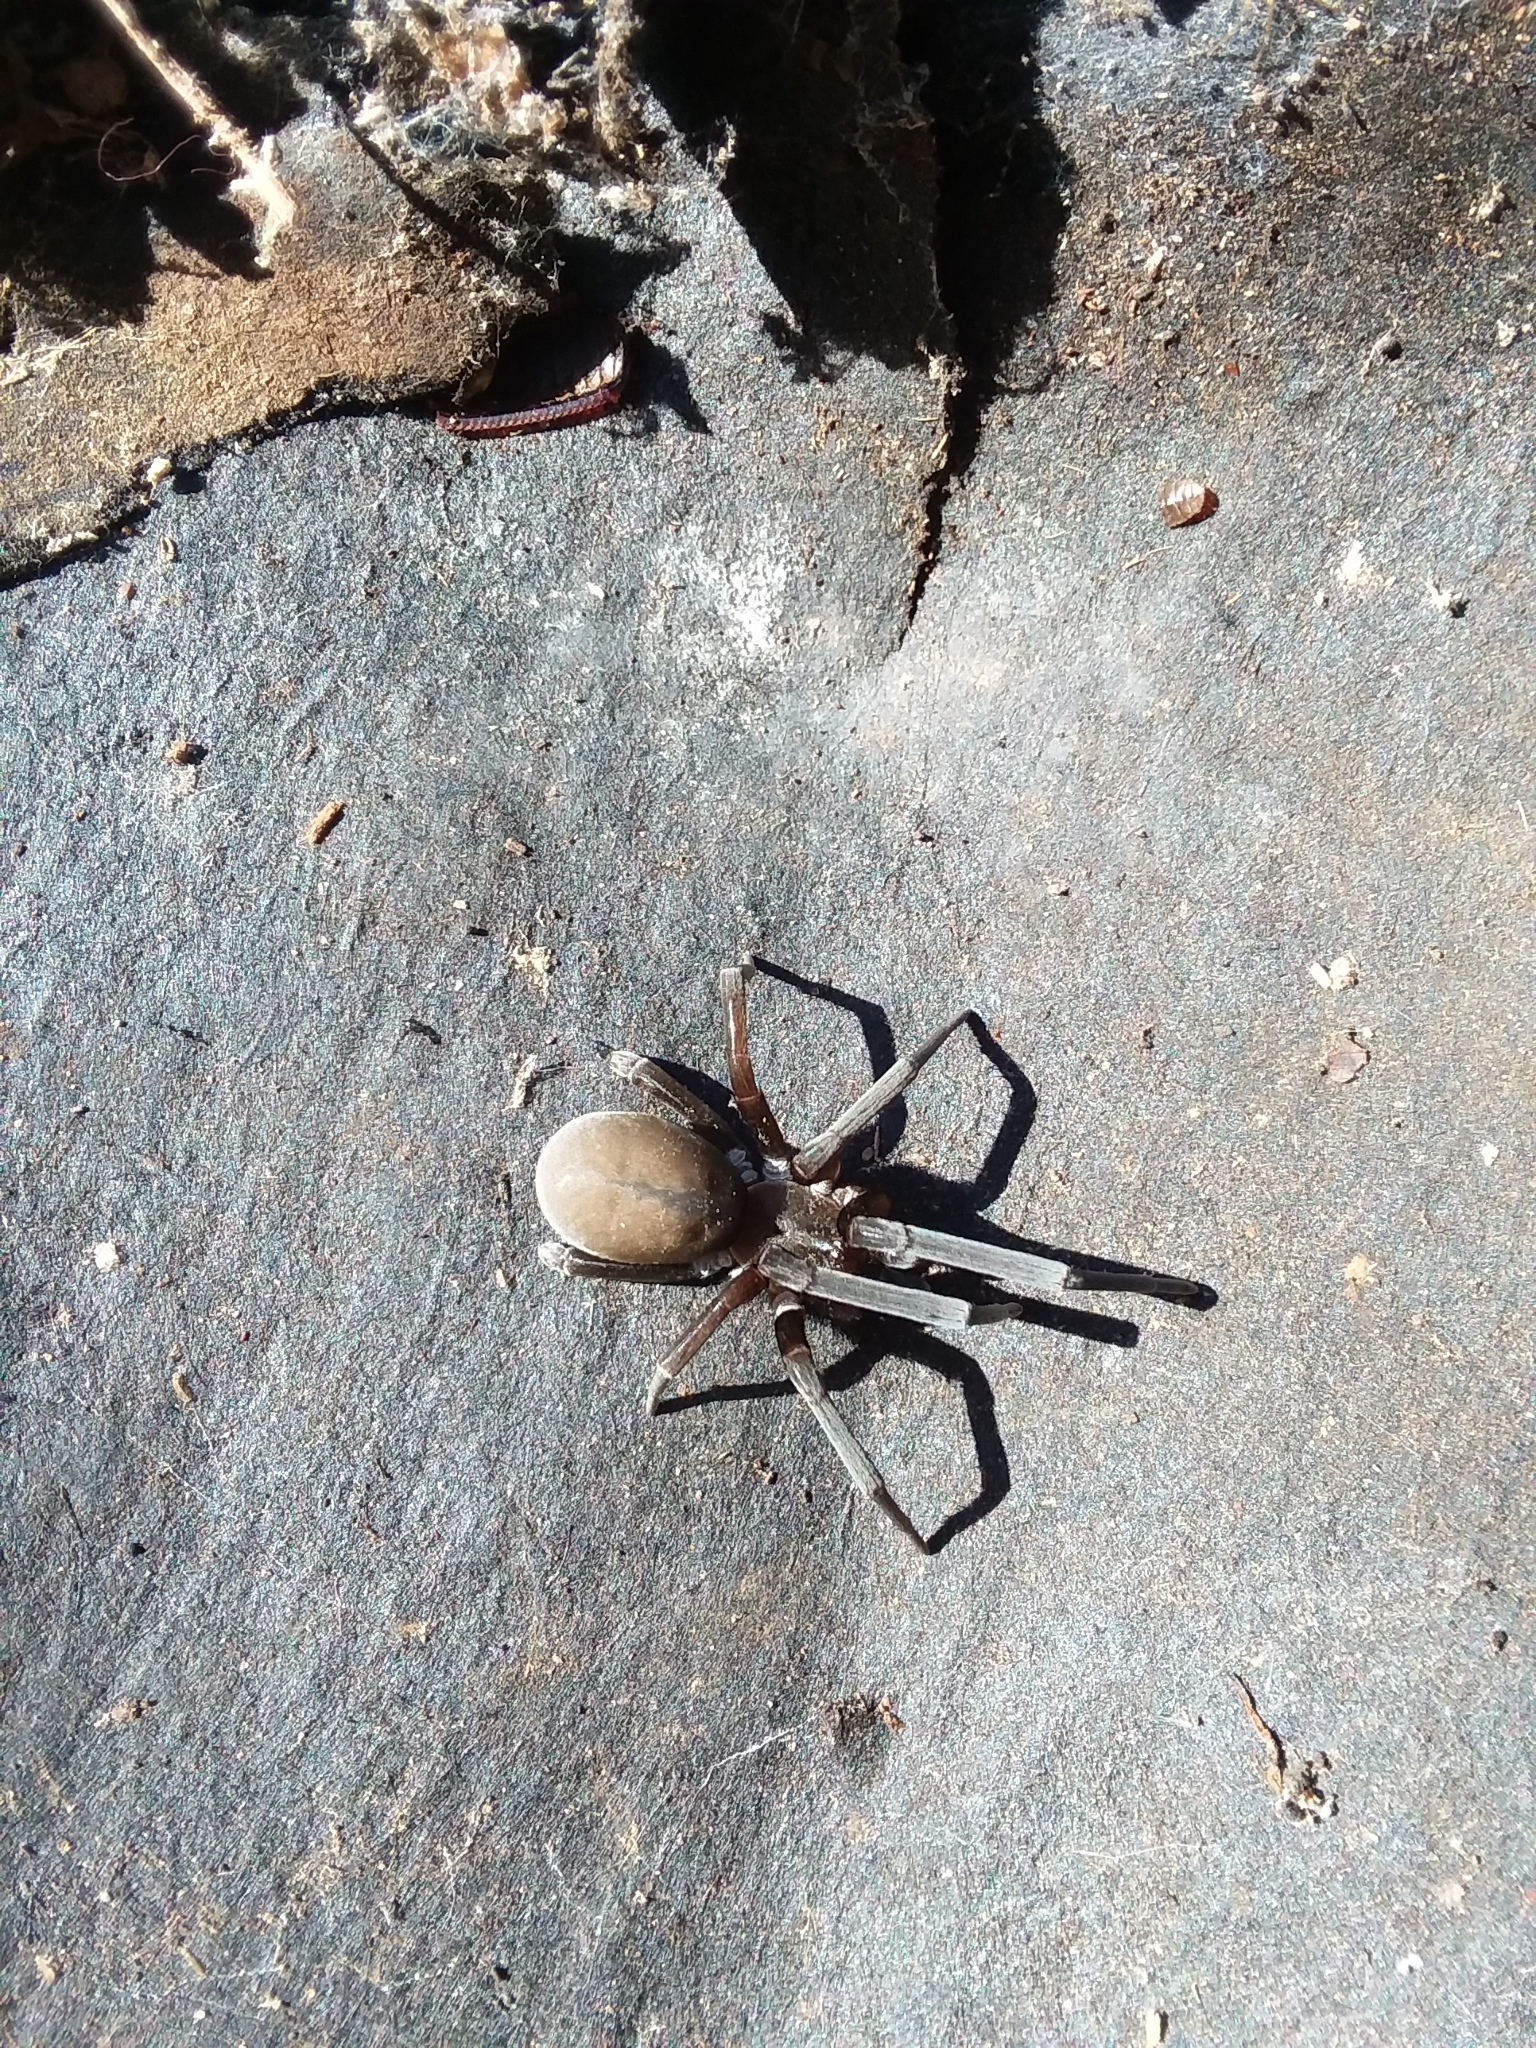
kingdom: Animalia
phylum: Arthropoda
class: Arachnida
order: Araneae
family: Filistatidae
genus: Kukulcania
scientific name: Kukulcania hibernalis
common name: Crevice weaver
